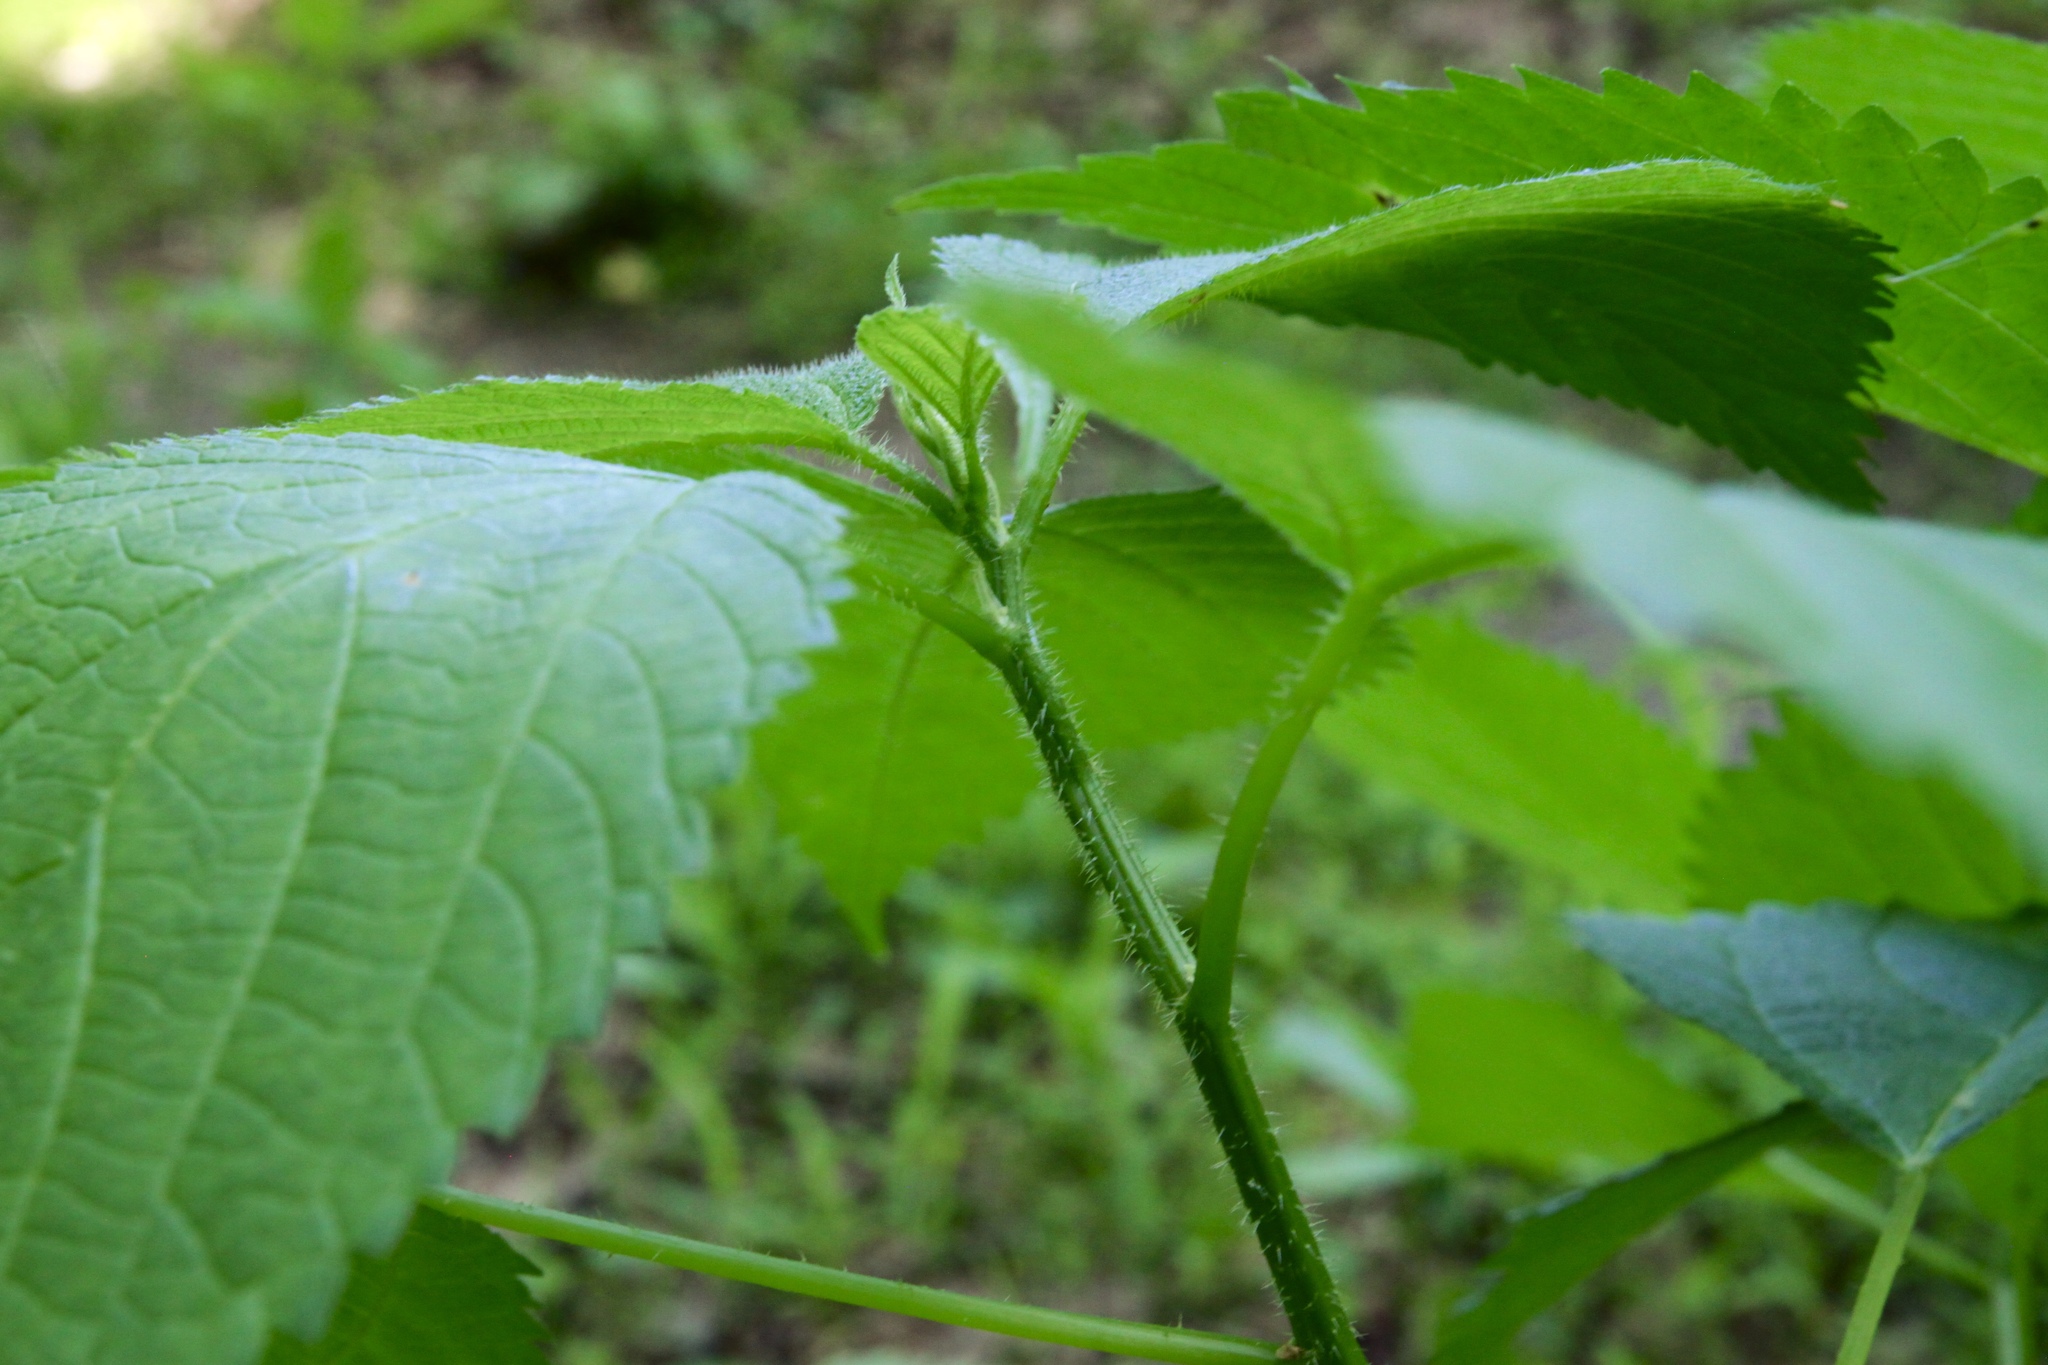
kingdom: Plantae
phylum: Tracheophyta
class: Magnoliopsida
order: Rosales
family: Urticaceae
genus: Laportea
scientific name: Laportea canadensis
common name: Canada nettle
